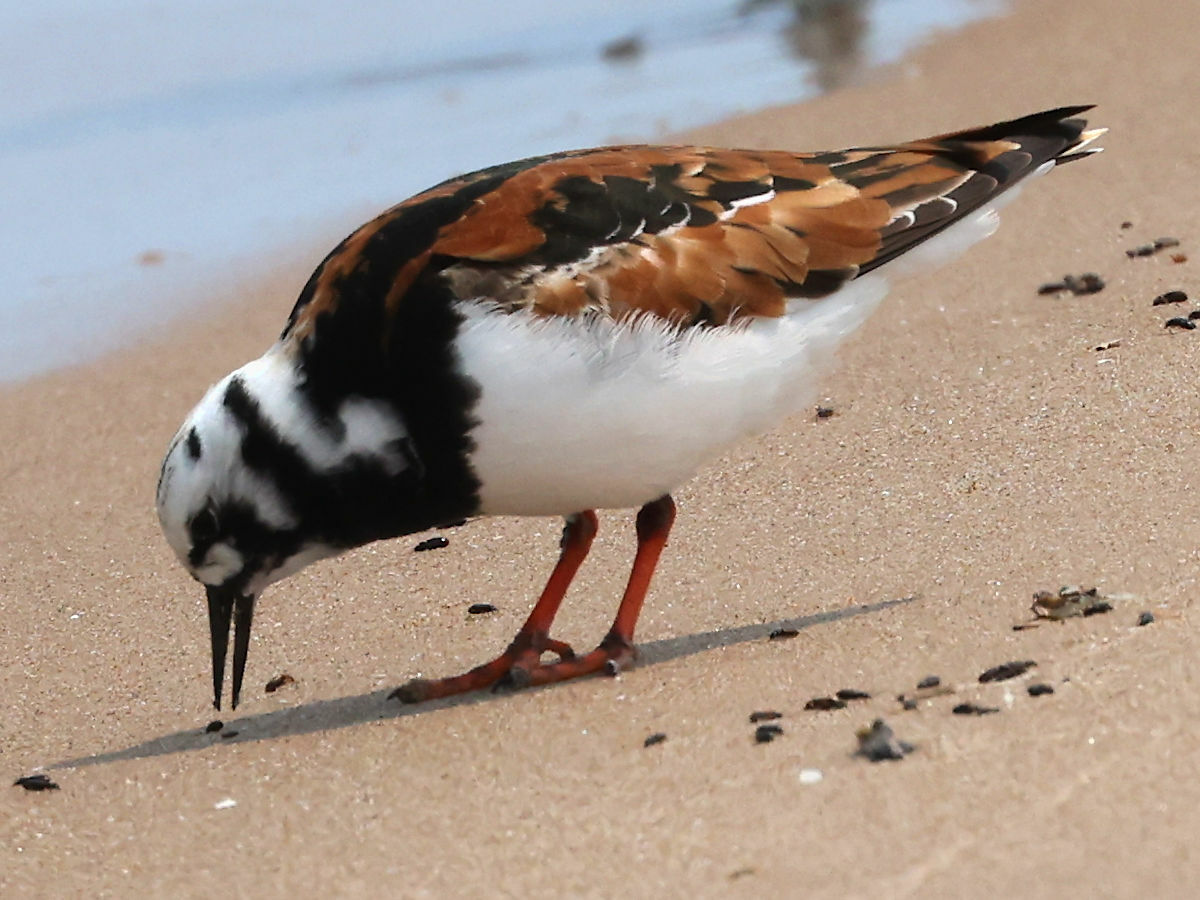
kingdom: Animalia
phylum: Chordata
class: Aves
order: Charadriiformes
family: Scolopacidae
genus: Arenaria
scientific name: Arenaria interpres
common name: Ruddy turnstone
